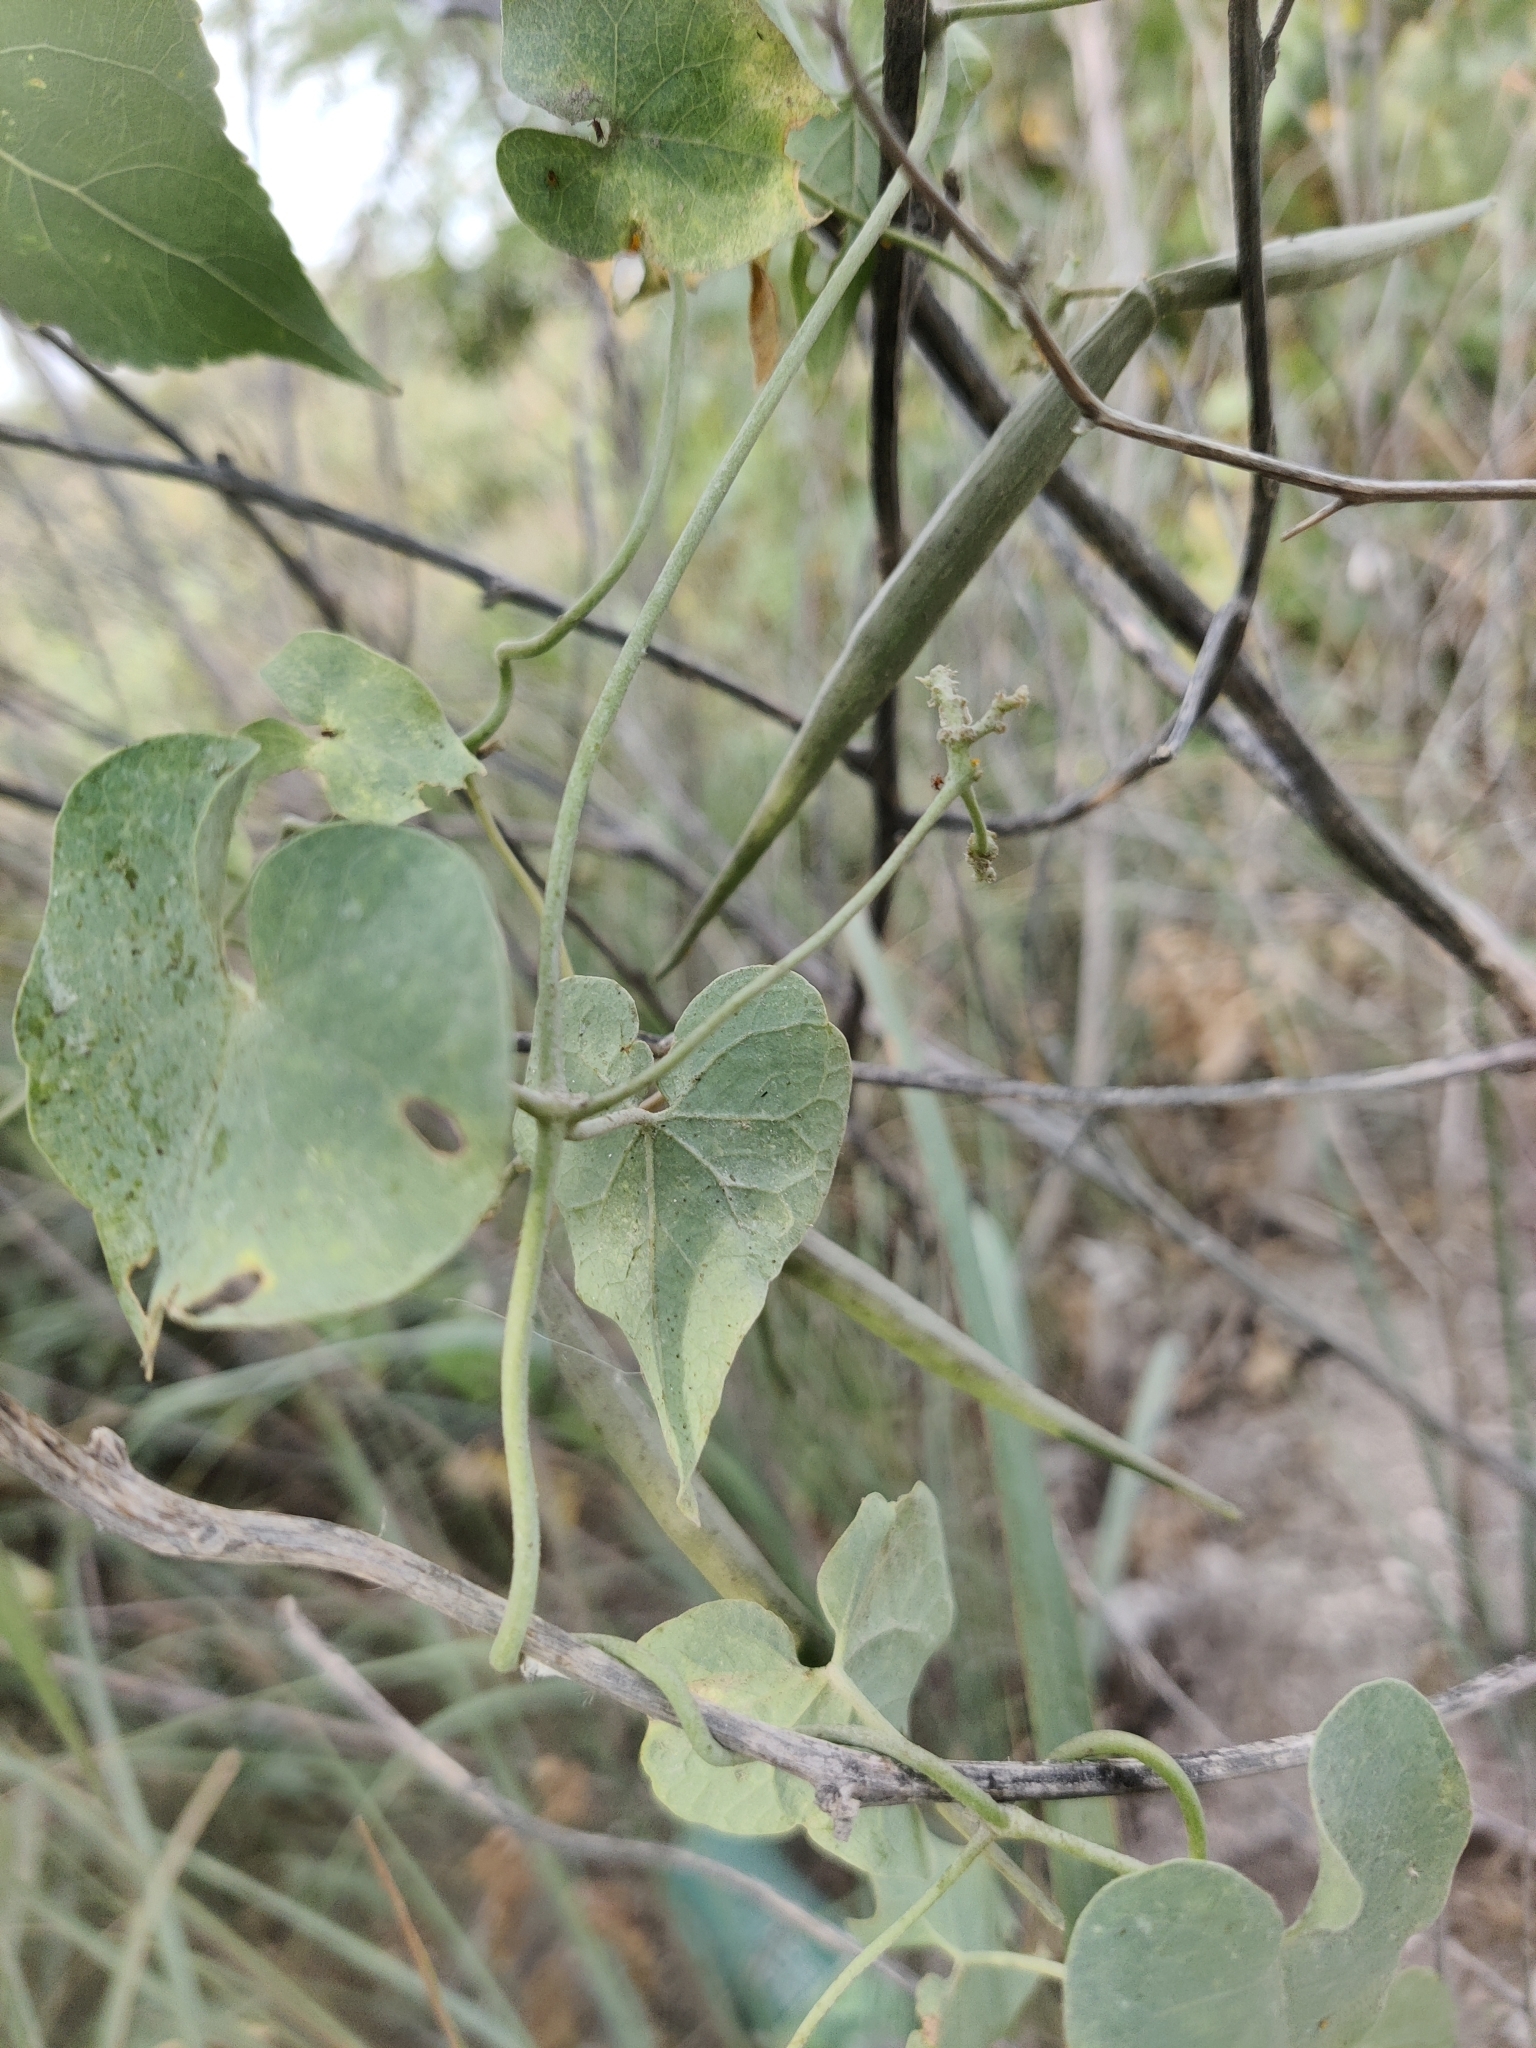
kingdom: Plantae
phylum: Tracheophyta
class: Magnoliopsida
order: Gentianales
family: Apocynaceae
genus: Cynanchum
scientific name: Cynanchum acutum
